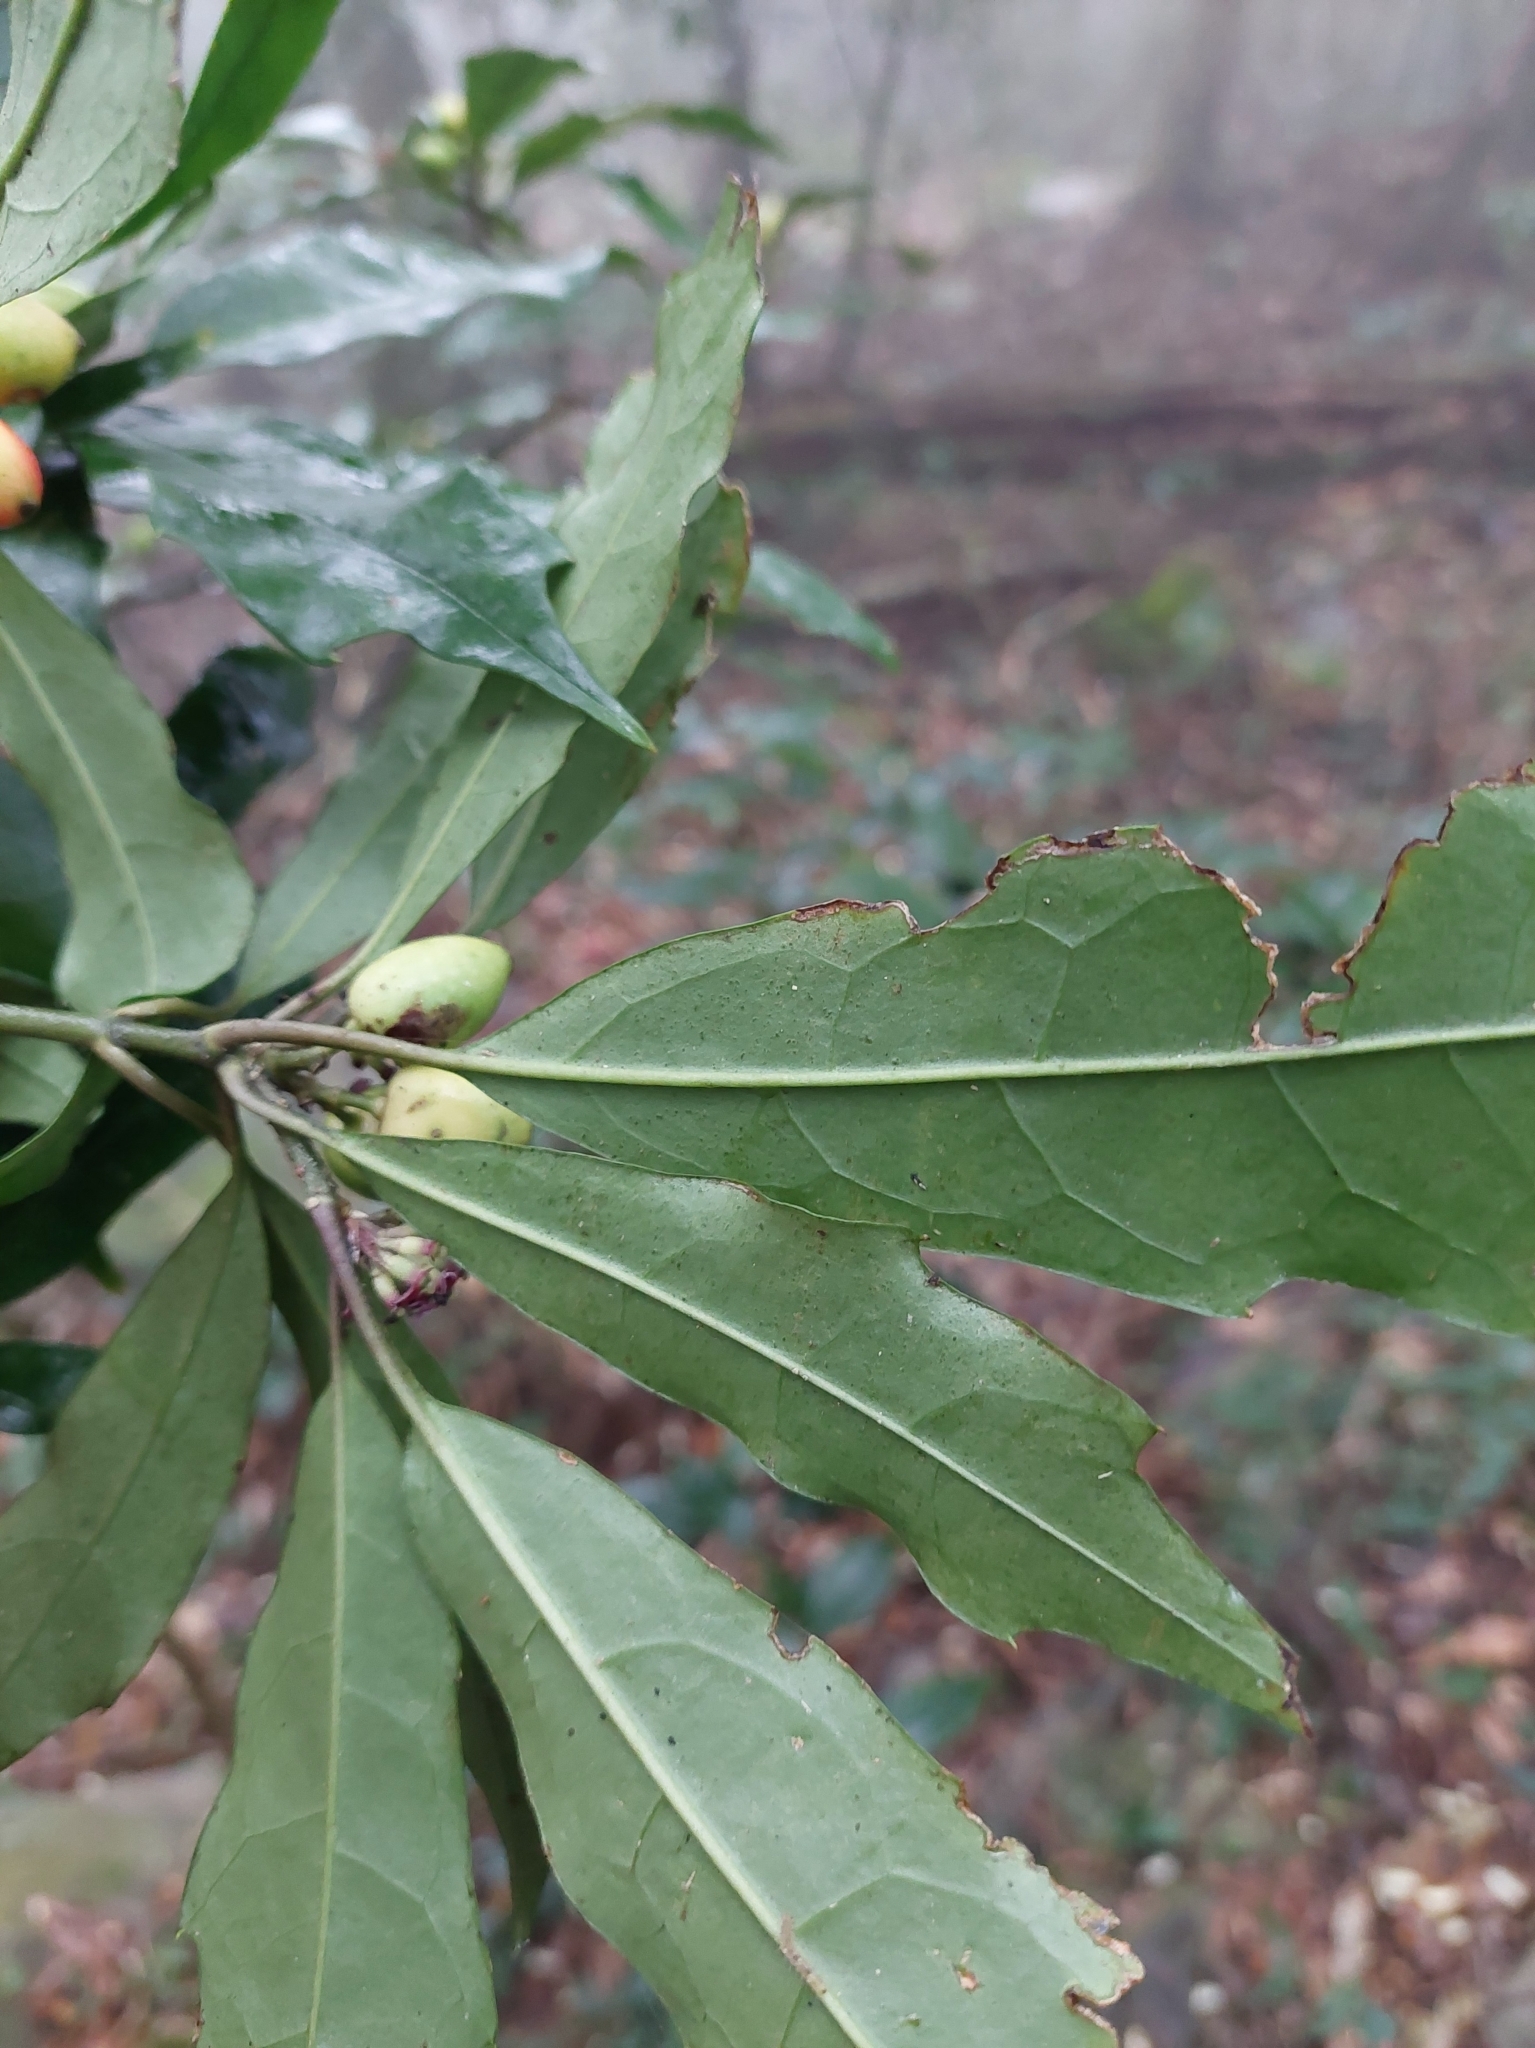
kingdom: Plantae
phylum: Tracheophyta
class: Magnoliopsida
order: Garryales
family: Garryaceae
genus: Aucuba
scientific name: Aucuba chinensis
